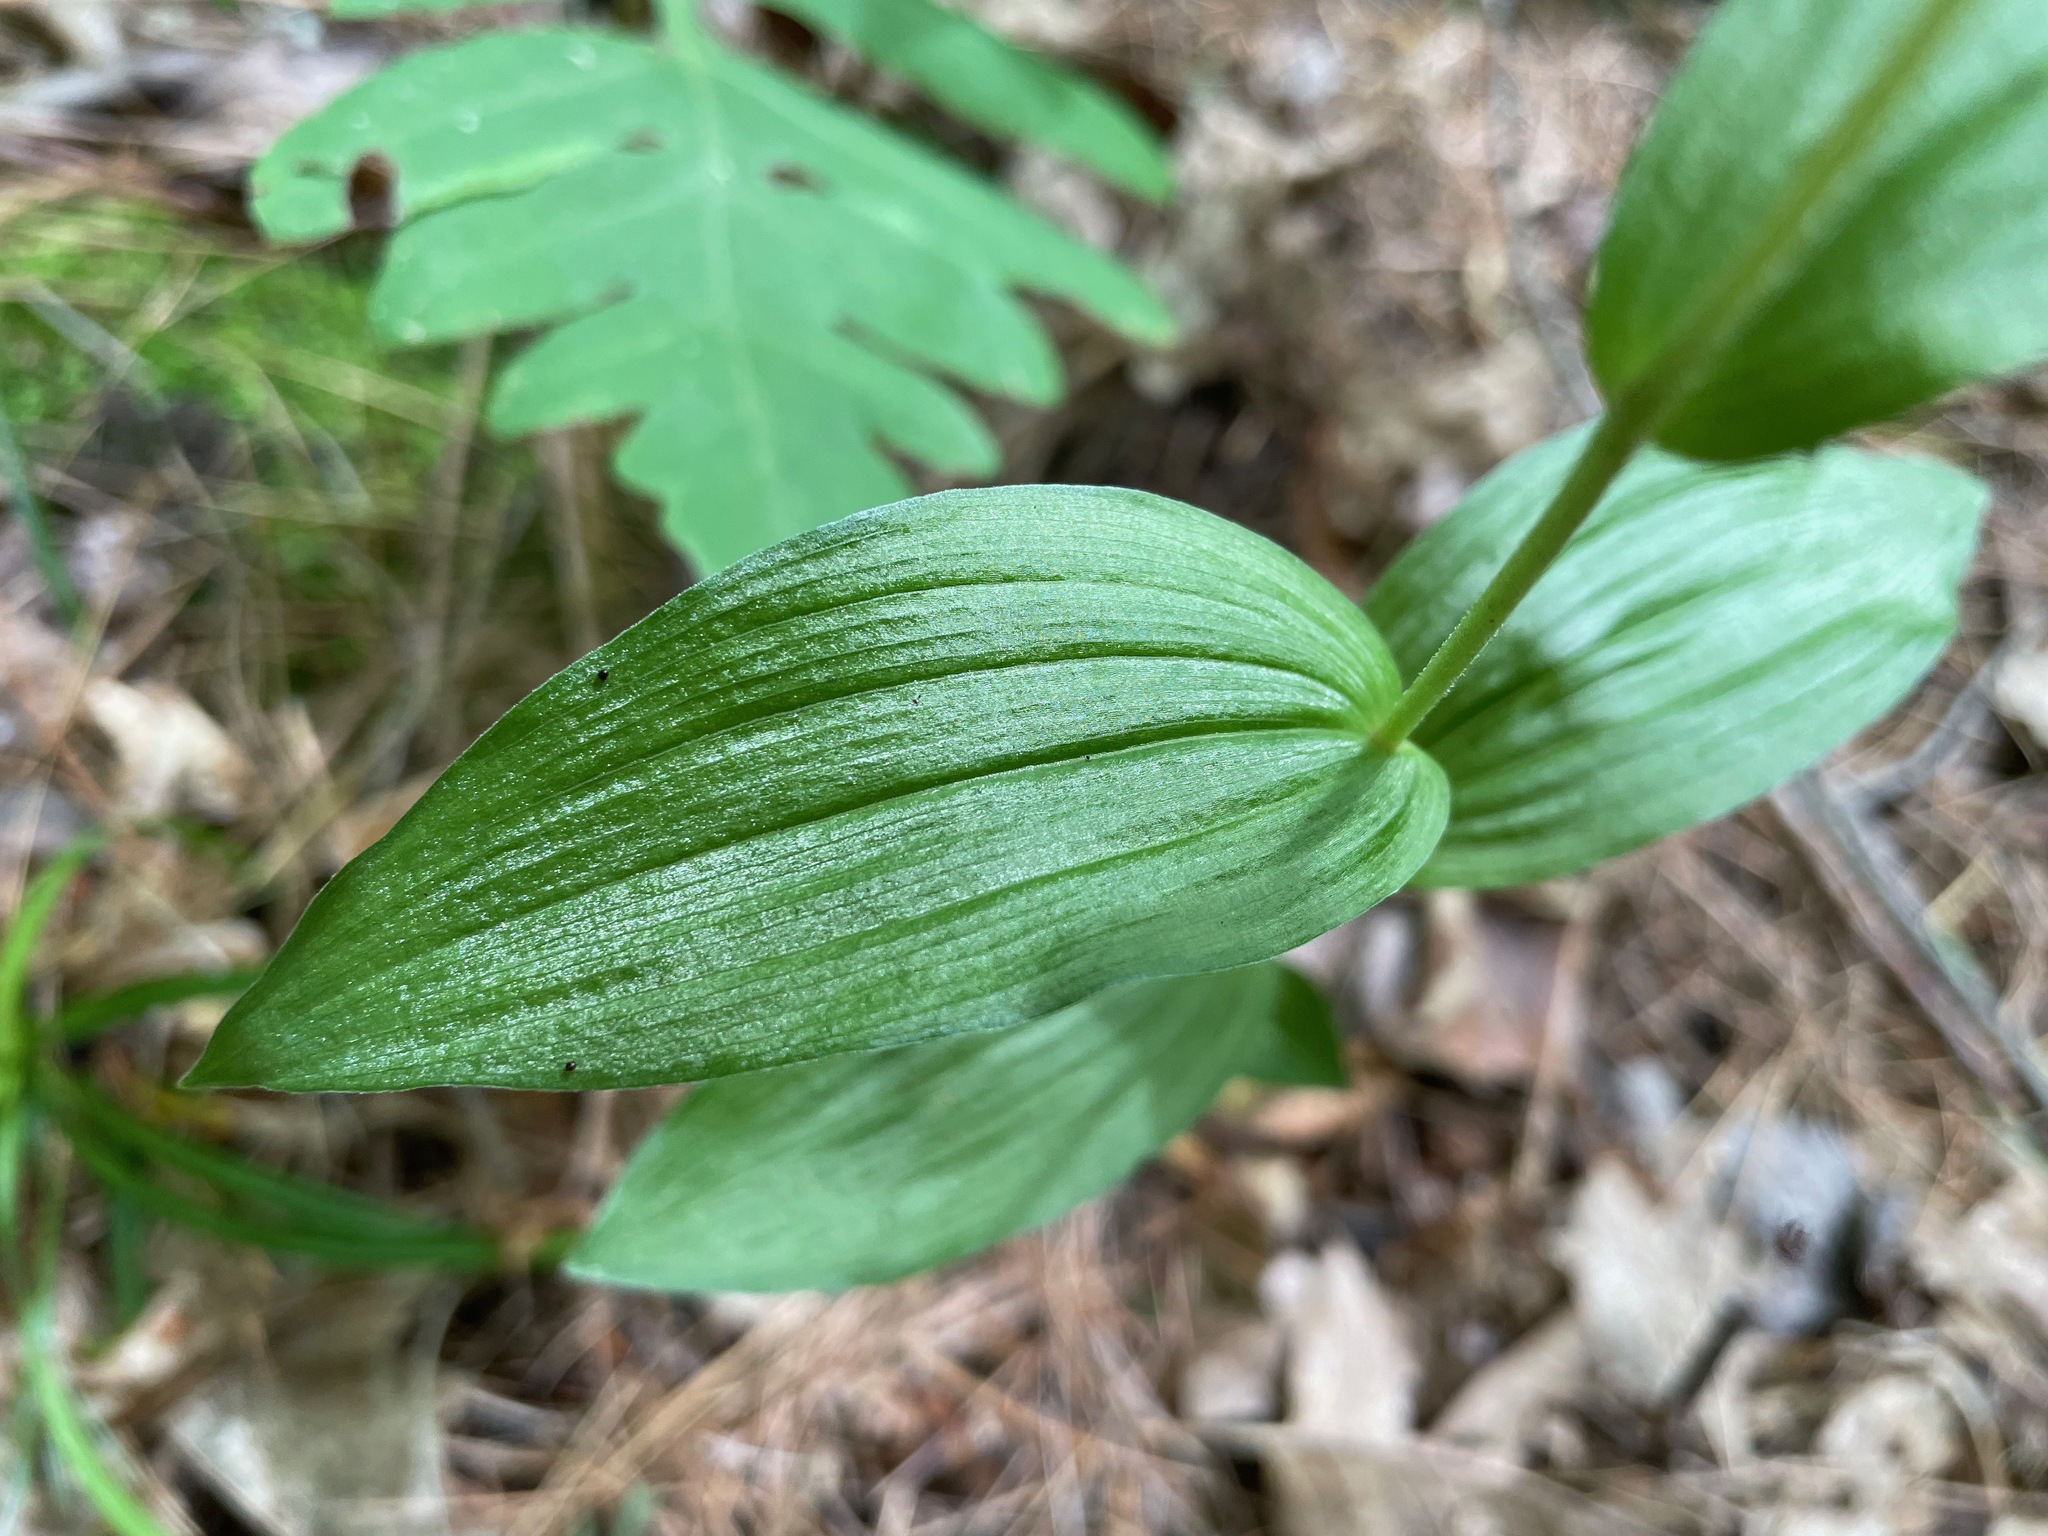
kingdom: Plantae
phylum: Tracheophyta
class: Liliopsida
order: Asparagales
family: Orchidaceae
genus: Epipactis
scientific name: Epipactis helleborine
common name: Broad-leaved helleborine
